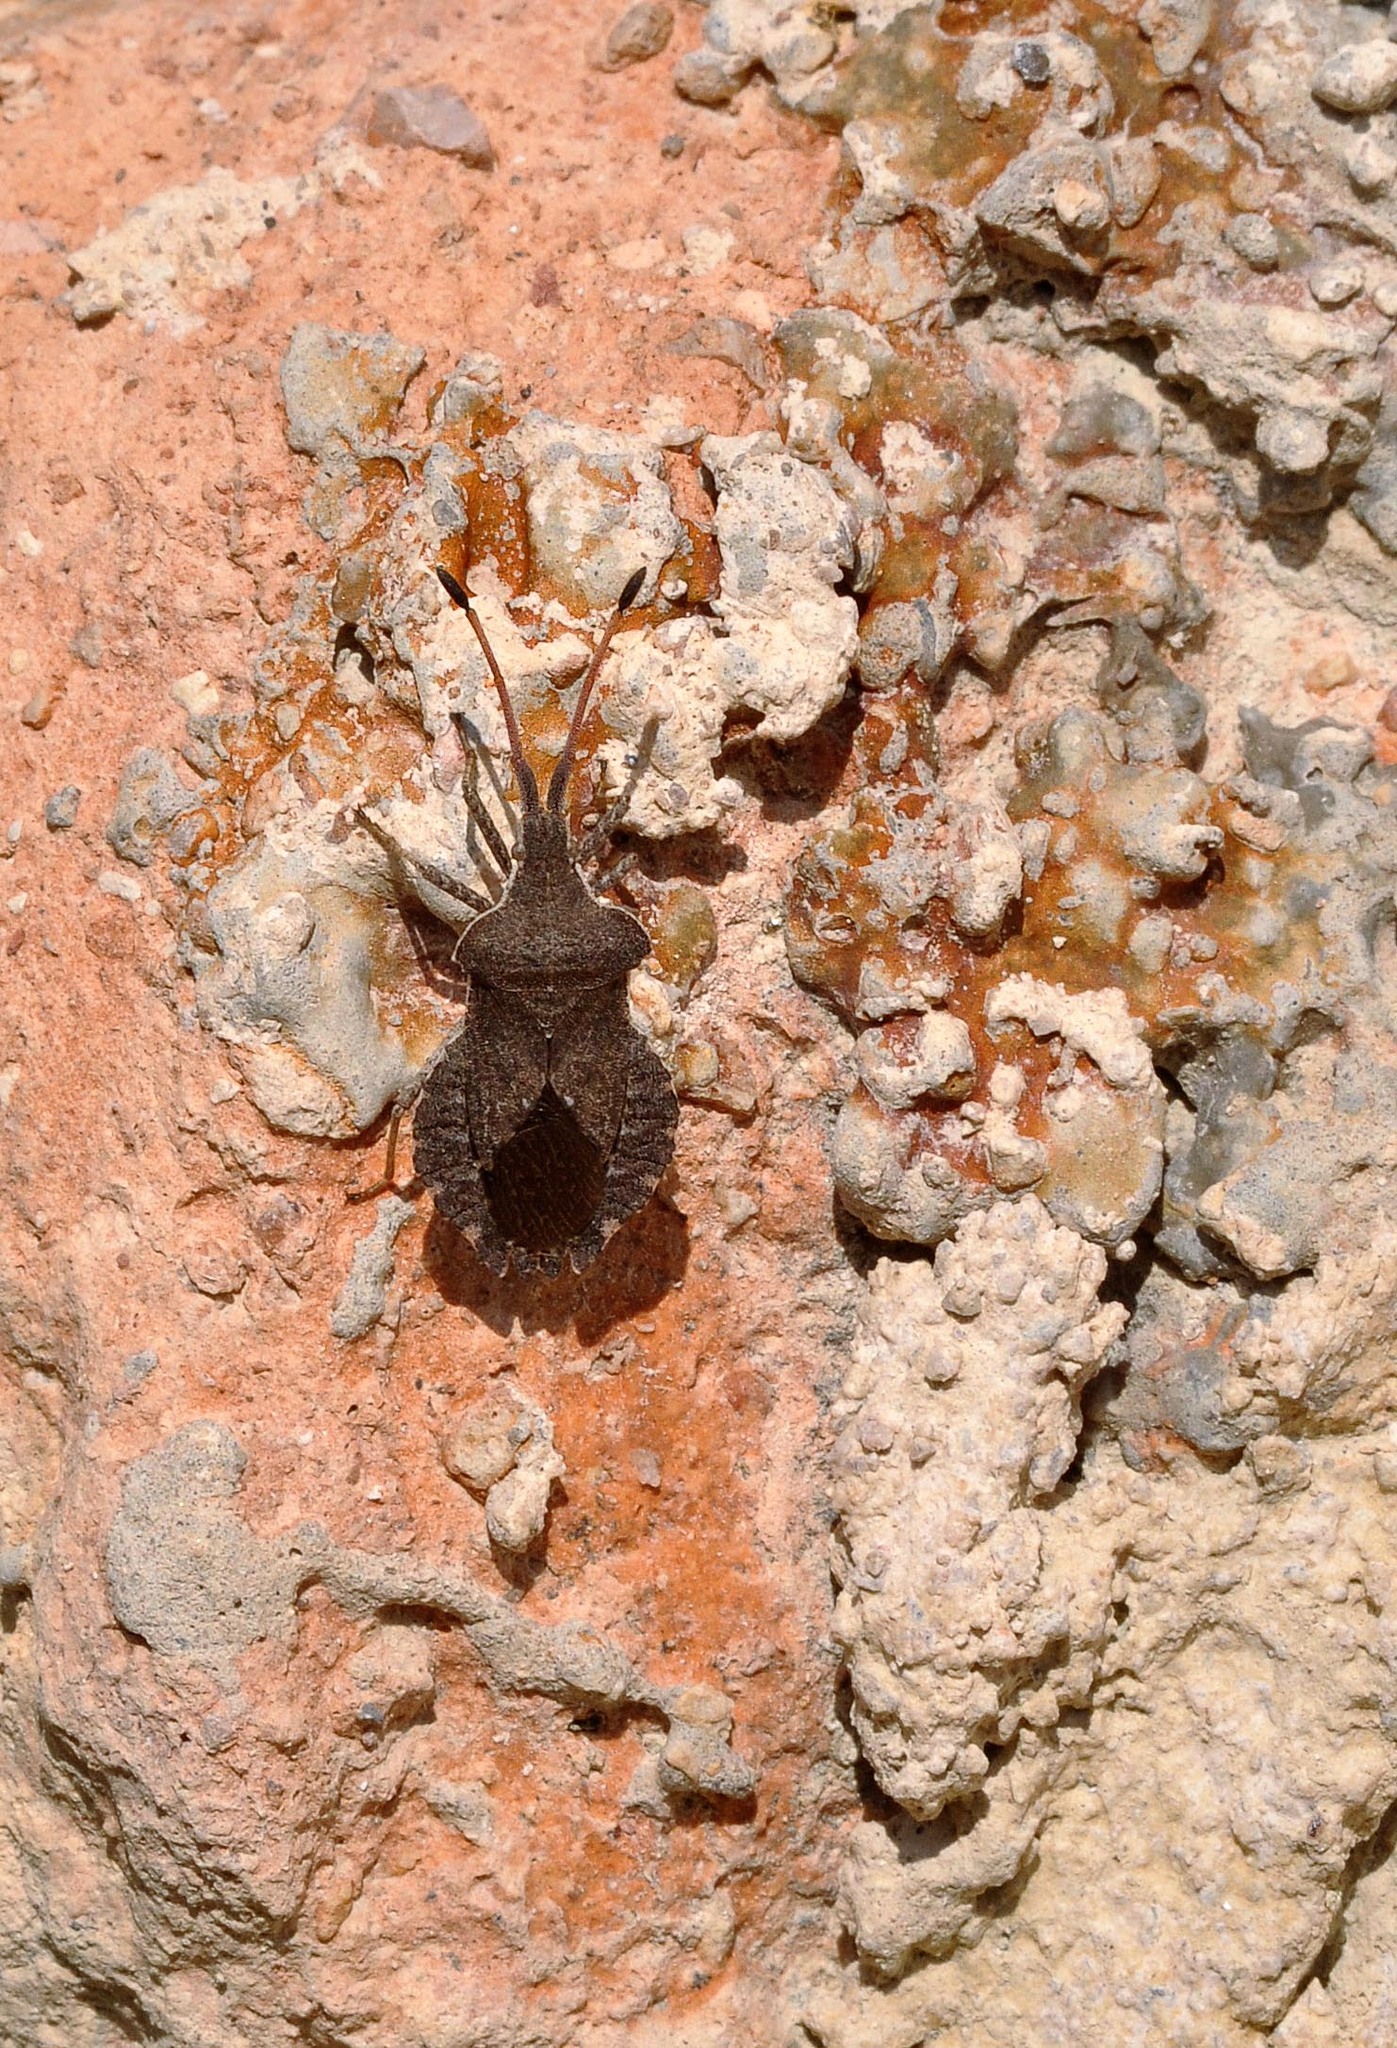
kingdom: Animalia
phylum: Arthropoda
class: Insecta
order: Hemiptera
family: Coreidae
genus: Enoplops
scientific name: Enoplops scapha
